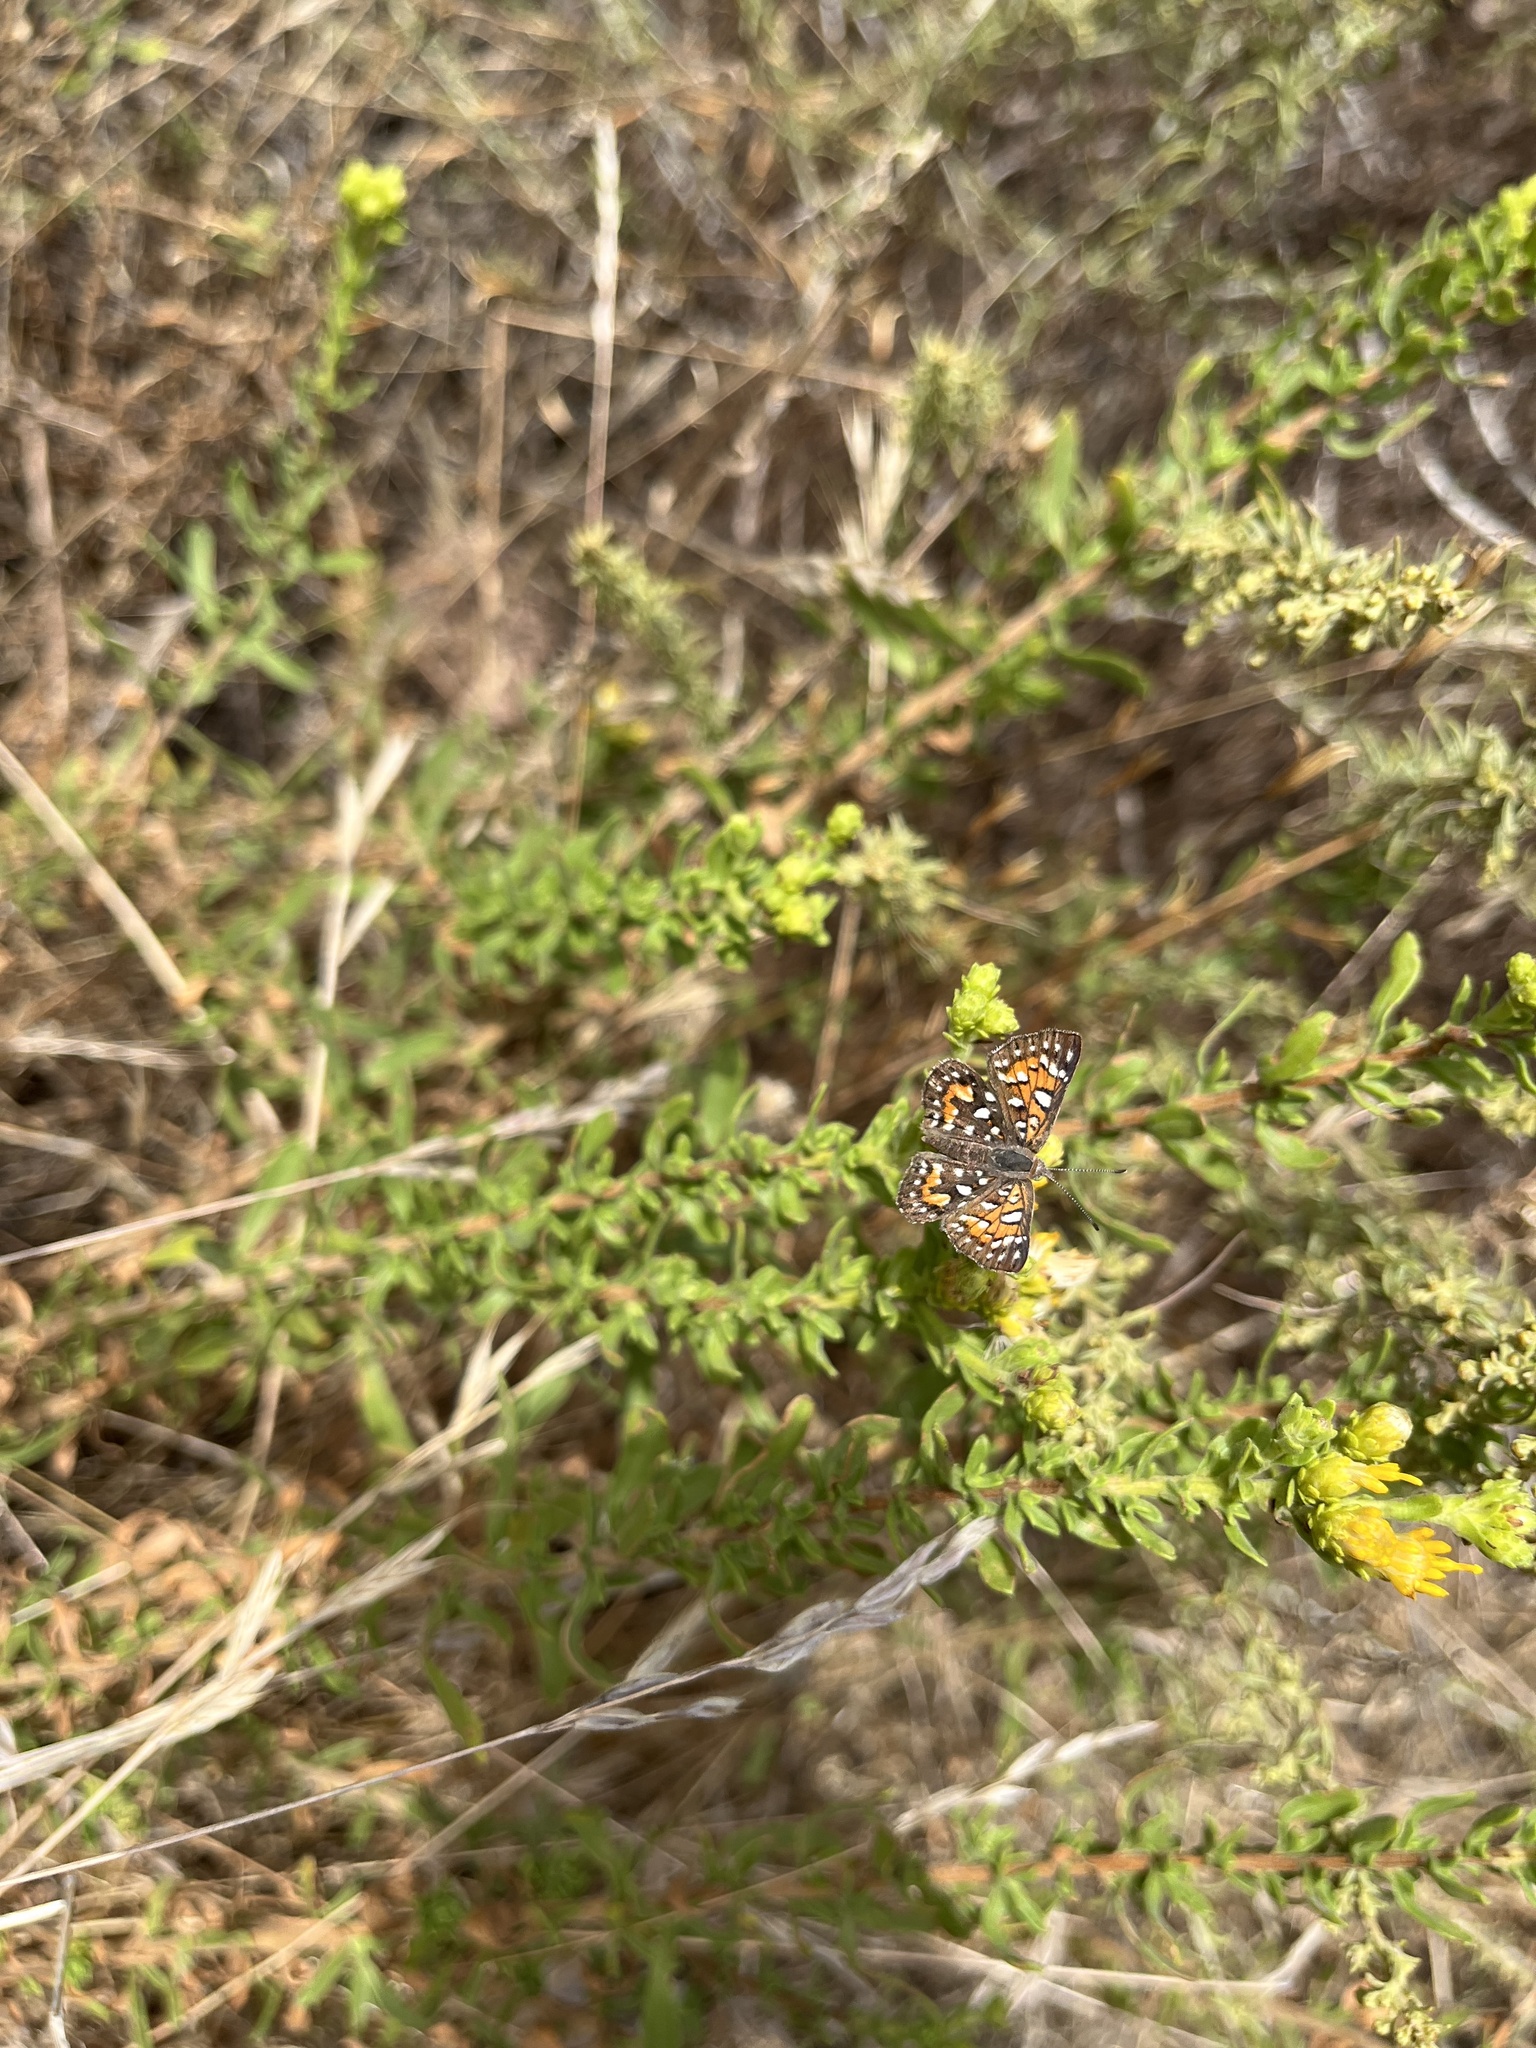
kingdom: Animalia
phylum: Arthropoda
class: Insecta
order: Lepidoptera
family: Riodinidae
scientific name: Riodinidae
